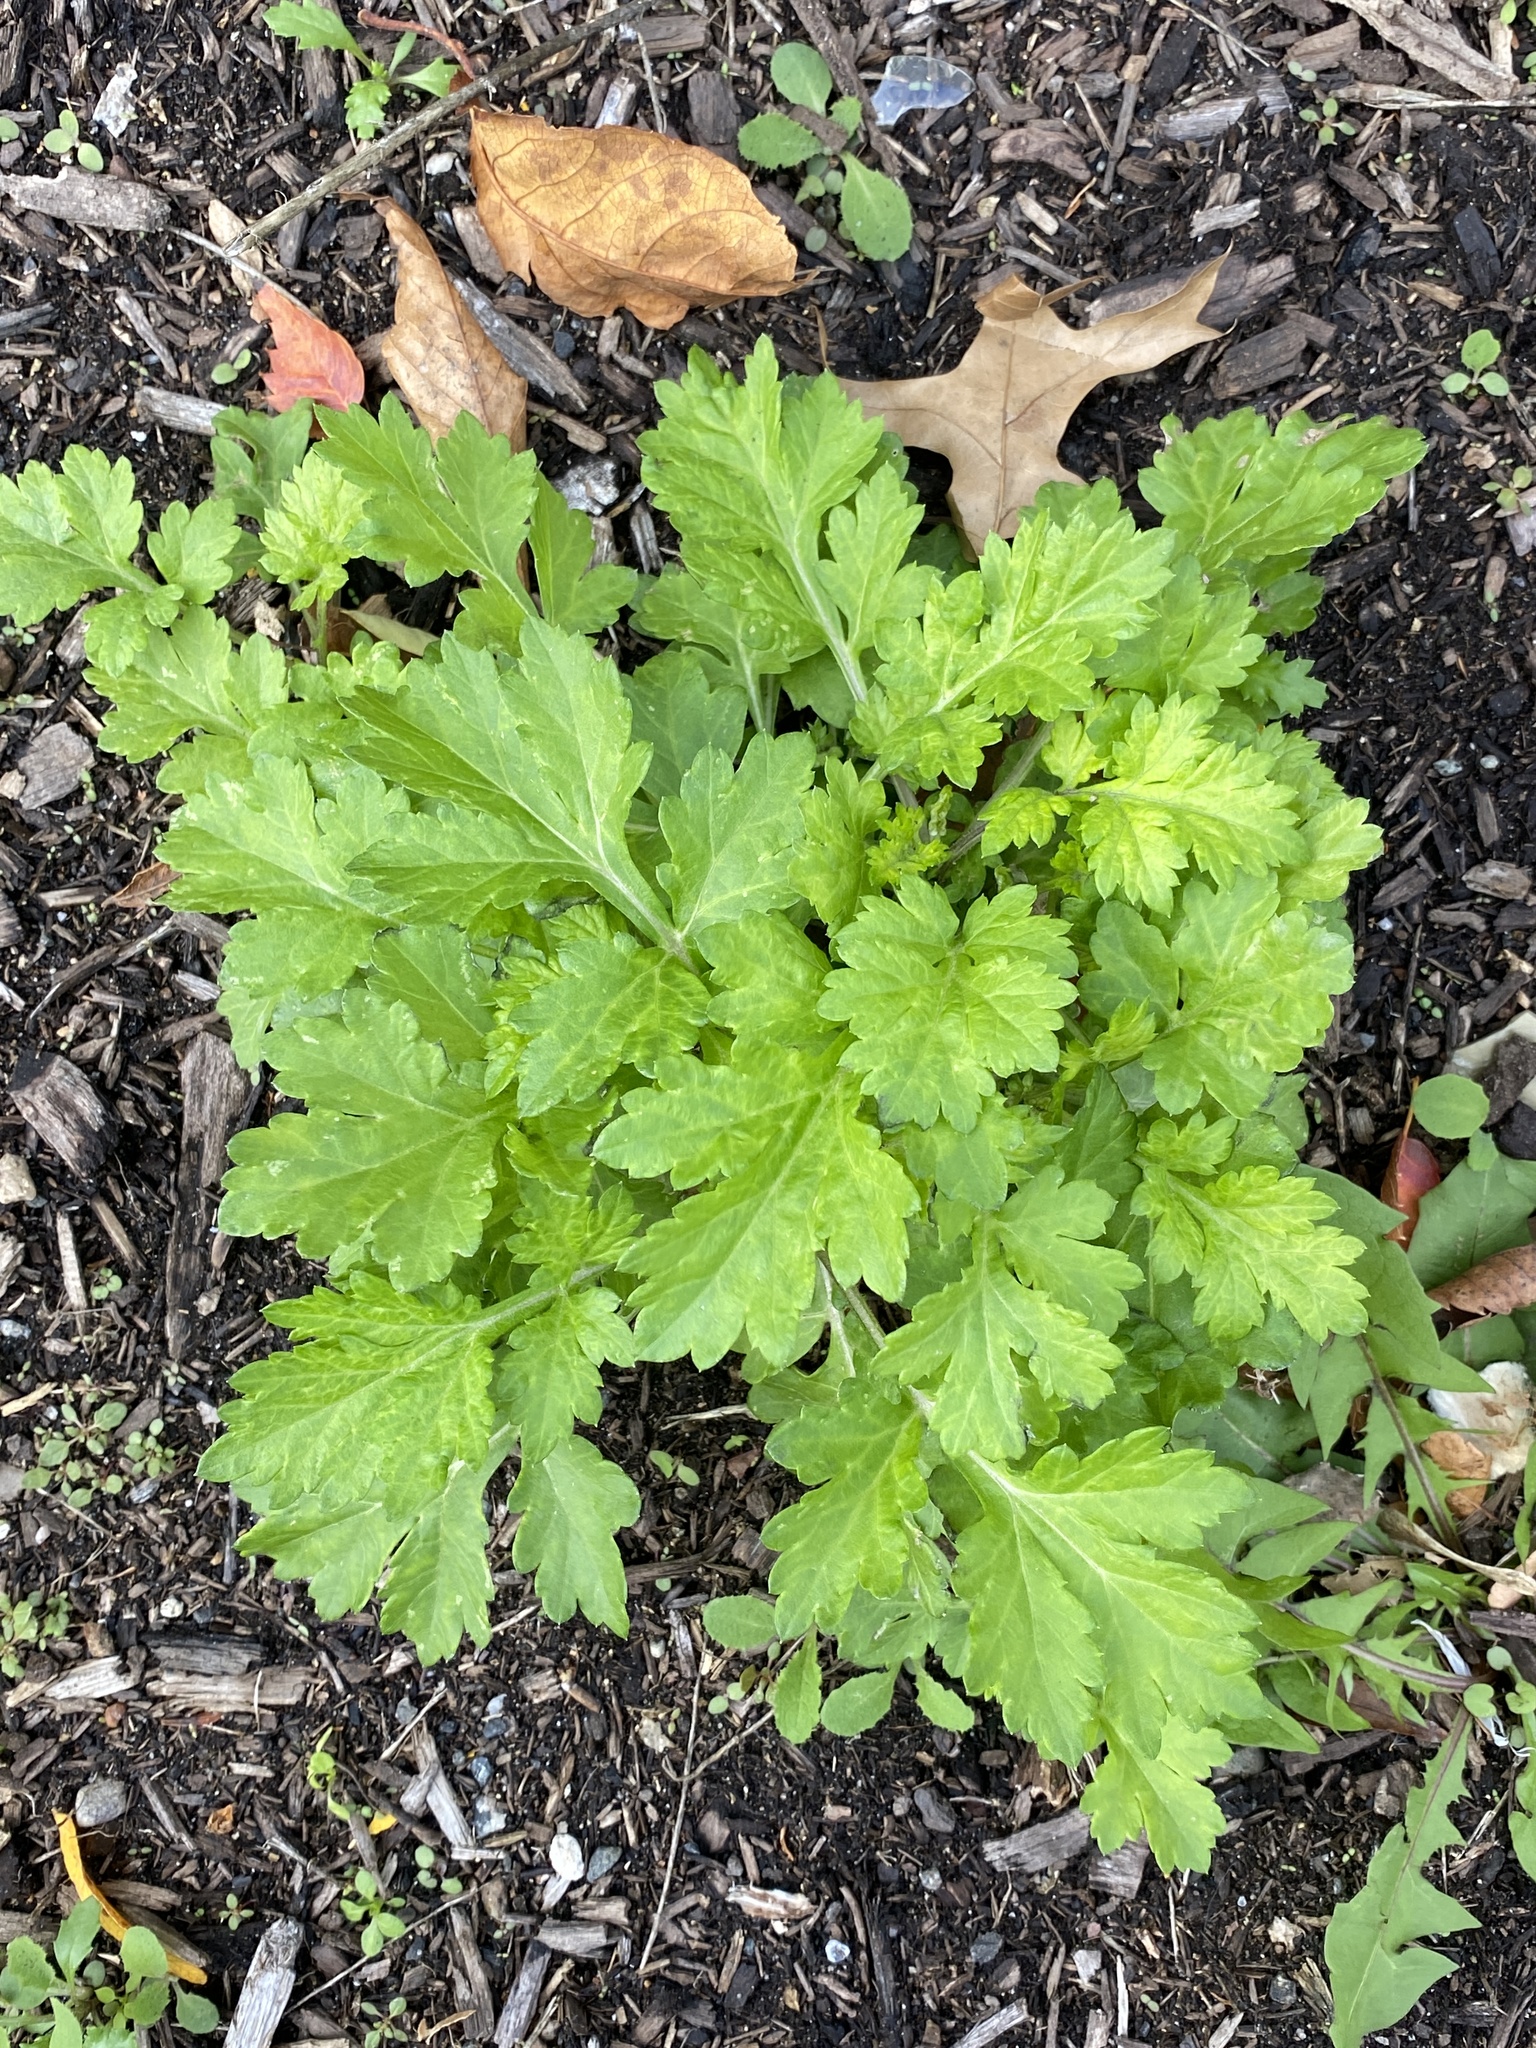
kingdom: Plantae
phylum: Tracheophyta
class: Magnoliopsida
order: Asterales
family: Asteraceae
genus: Artemisia
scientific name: Artemisia vulgaris
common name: Mugwort
